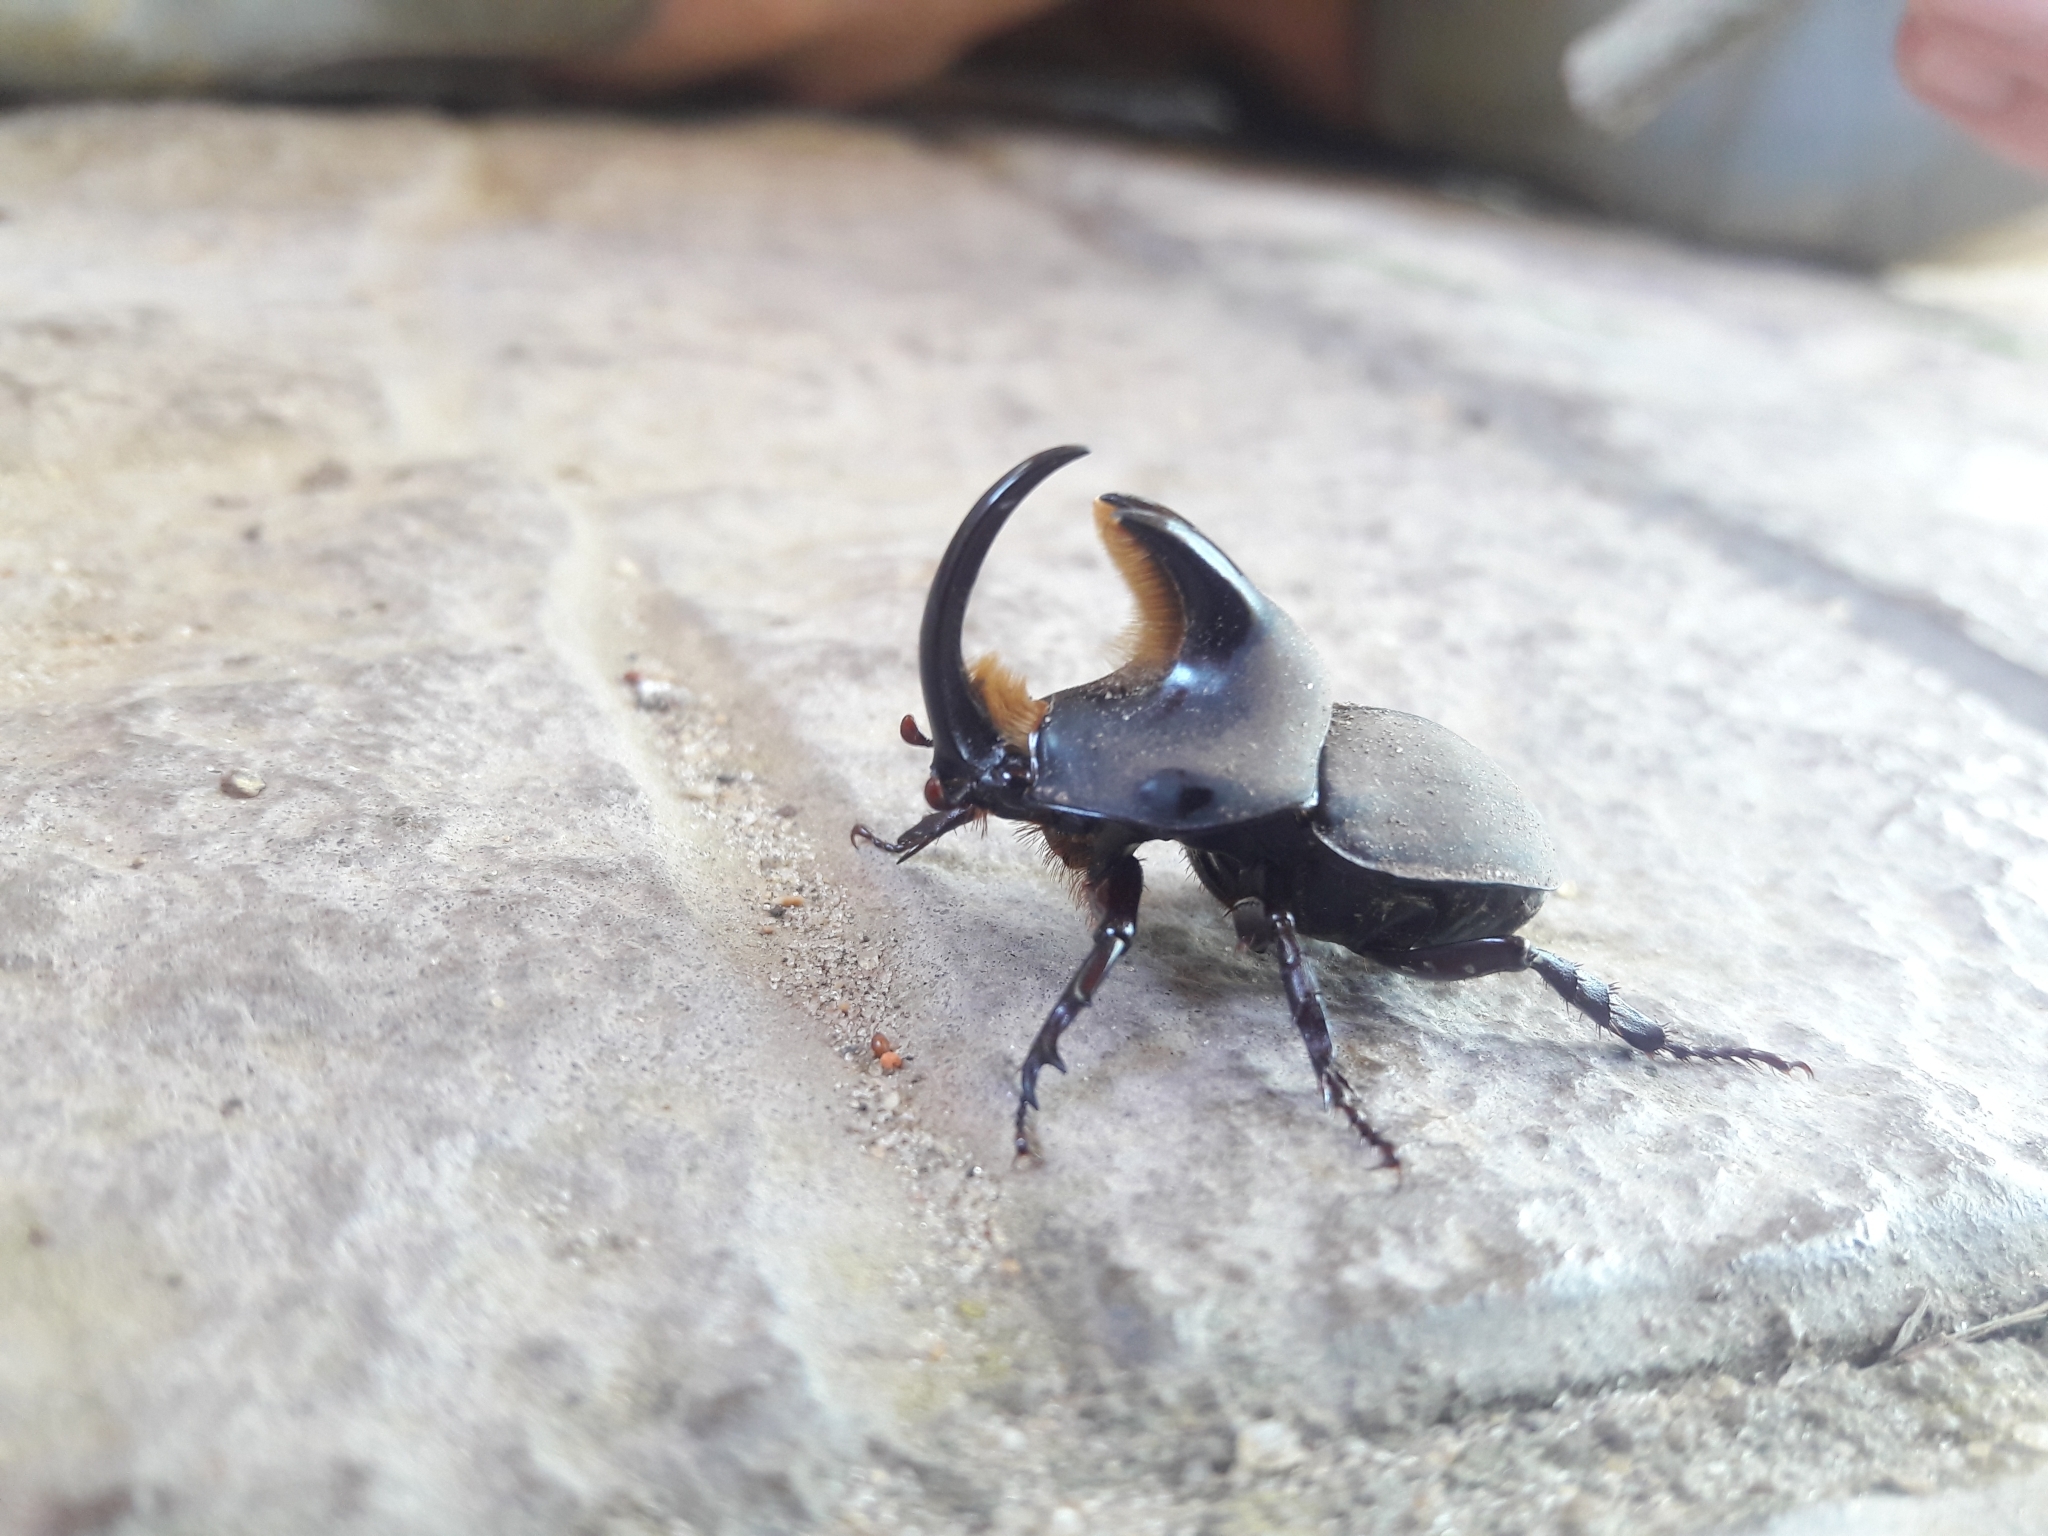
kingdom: Animalia
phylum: Arthropoda
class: Insecta
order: Coleoptera
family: Scarabaeidae
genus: Diloboderus
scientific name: Diloboderus abderus
